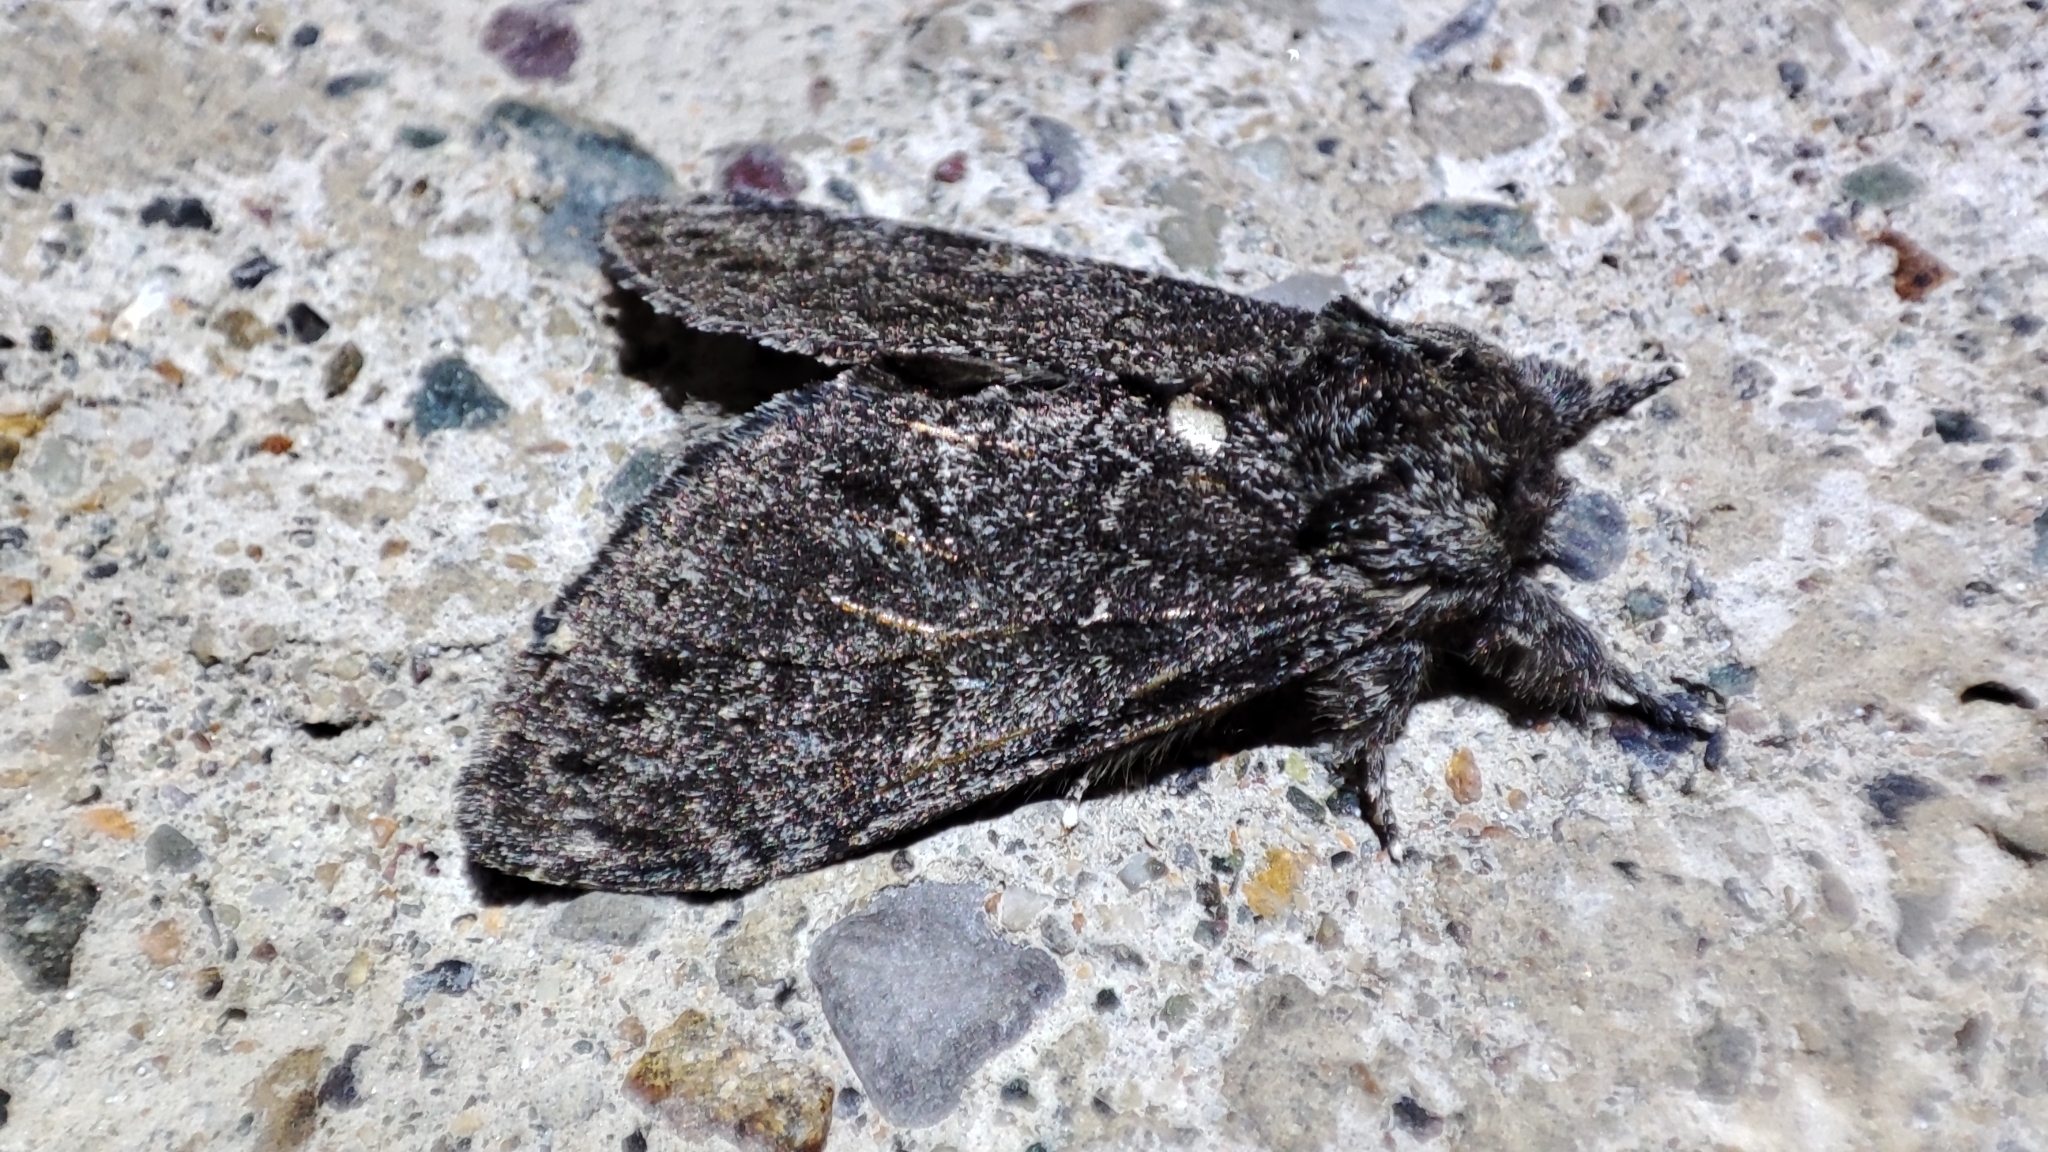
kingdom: Animalia
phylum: Arthropoda
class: Insecta
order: Lepidoptera
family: Notodontidae
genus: Notodonta
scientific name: Notodonta torva
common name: Large dark prominent
